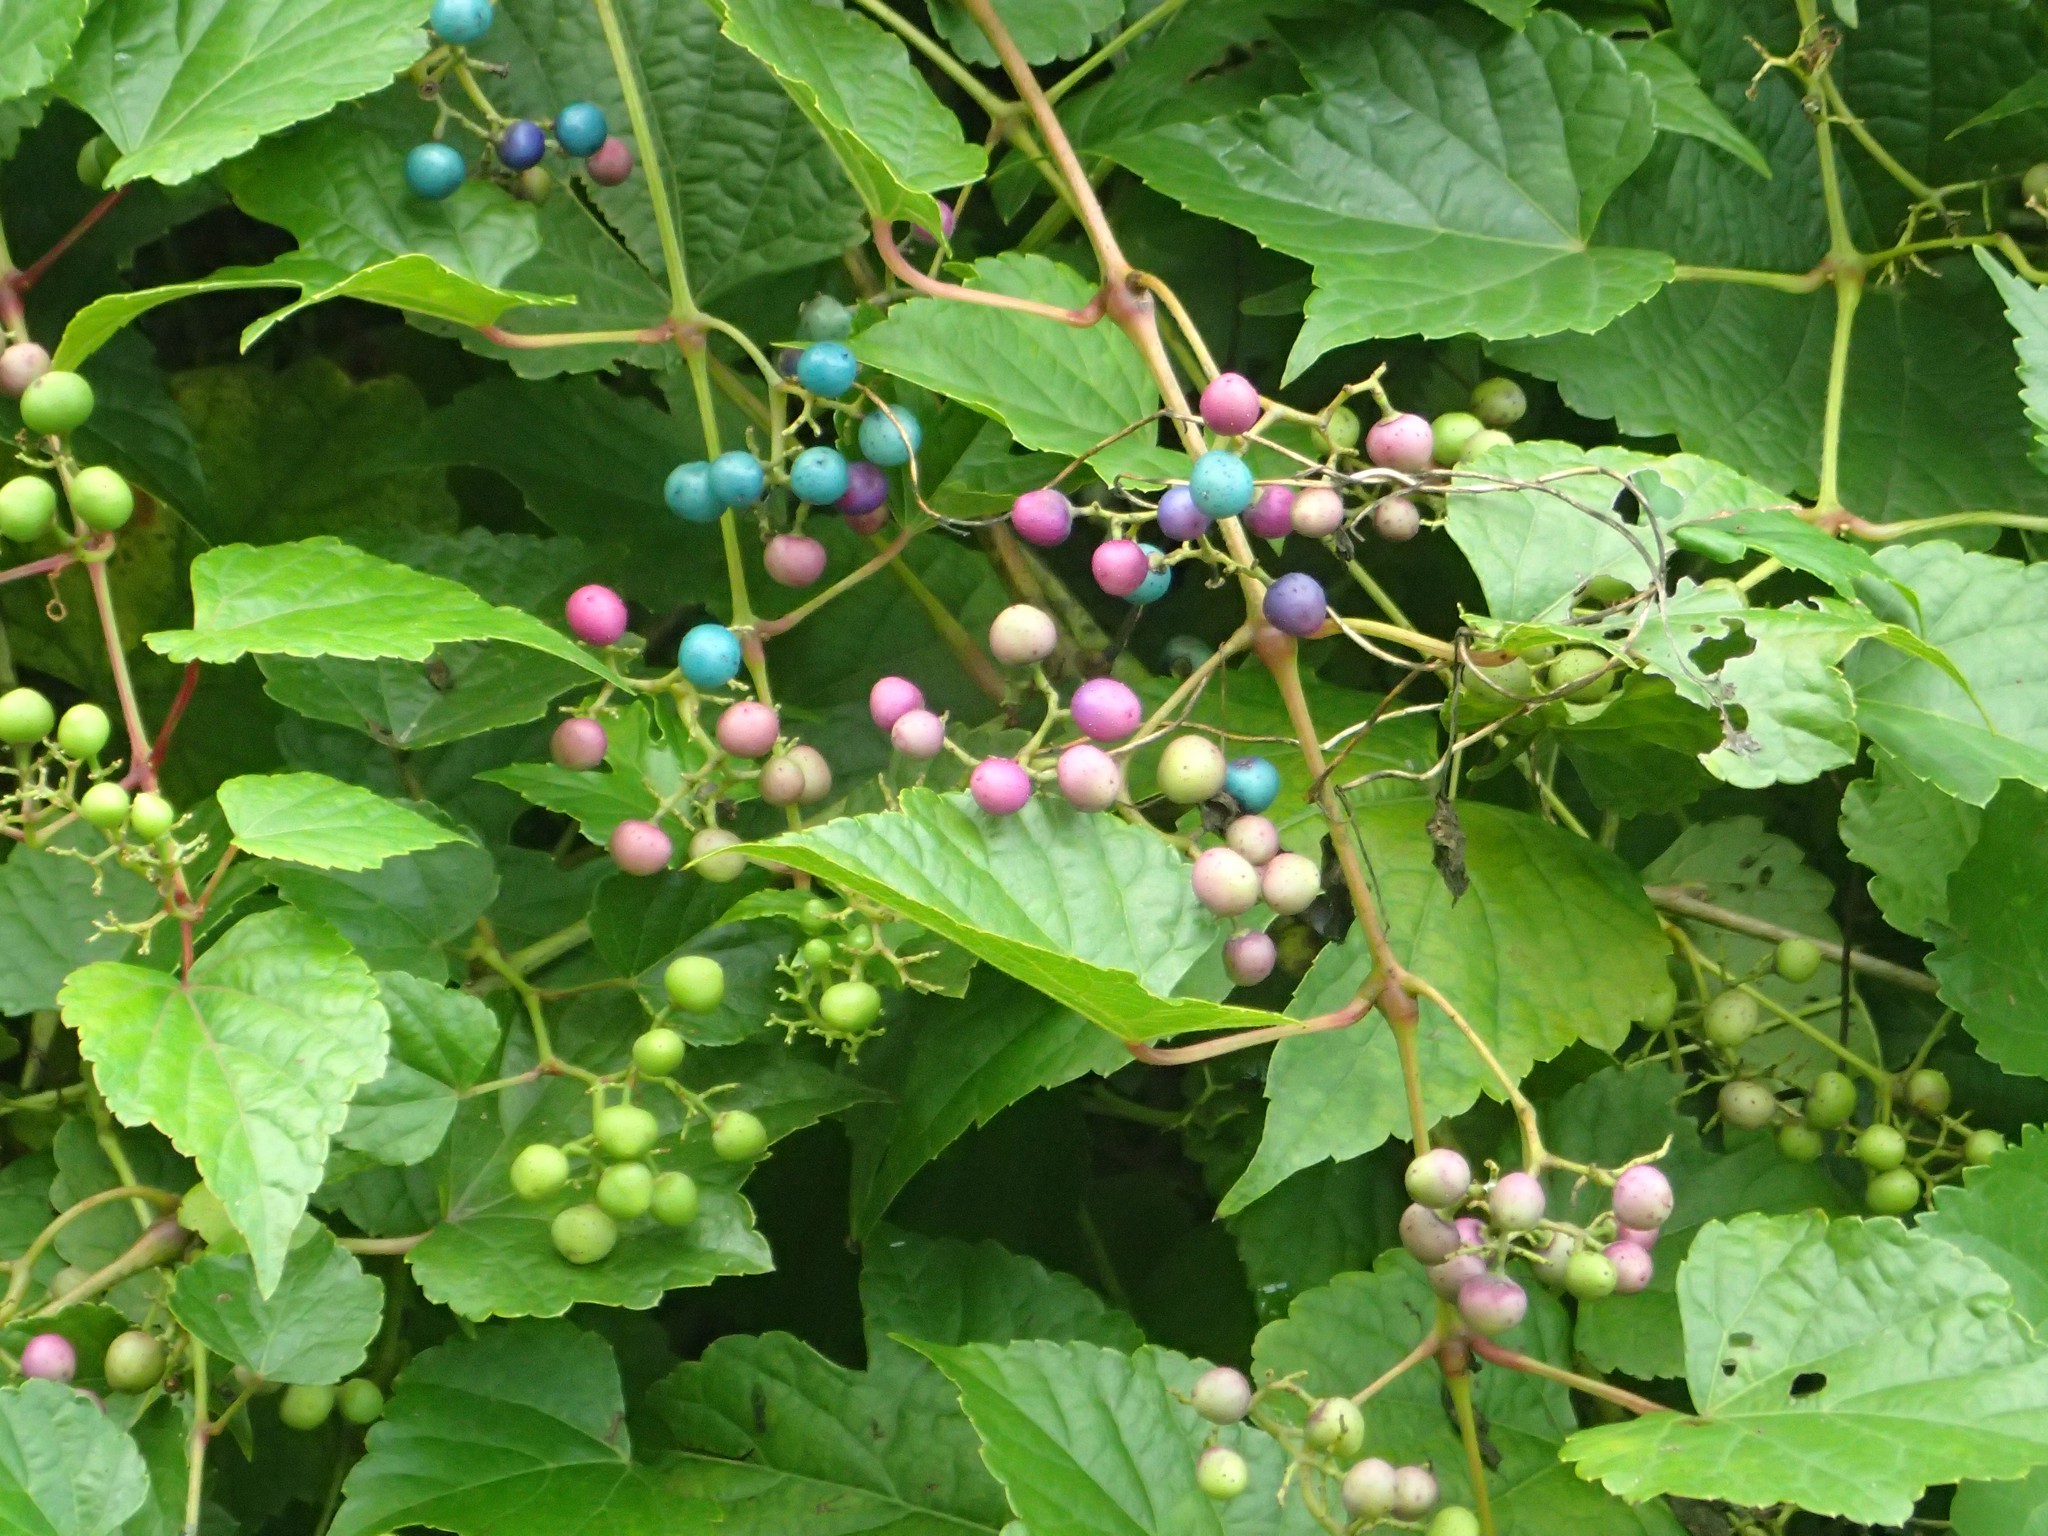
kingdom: Plantae
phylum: Tracheophyta
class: Magnoliopsida
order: Vitales
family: Vitaceae
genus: Ampelopsis
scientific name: Ampelopsis glandulosa
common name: Amur peppervine
